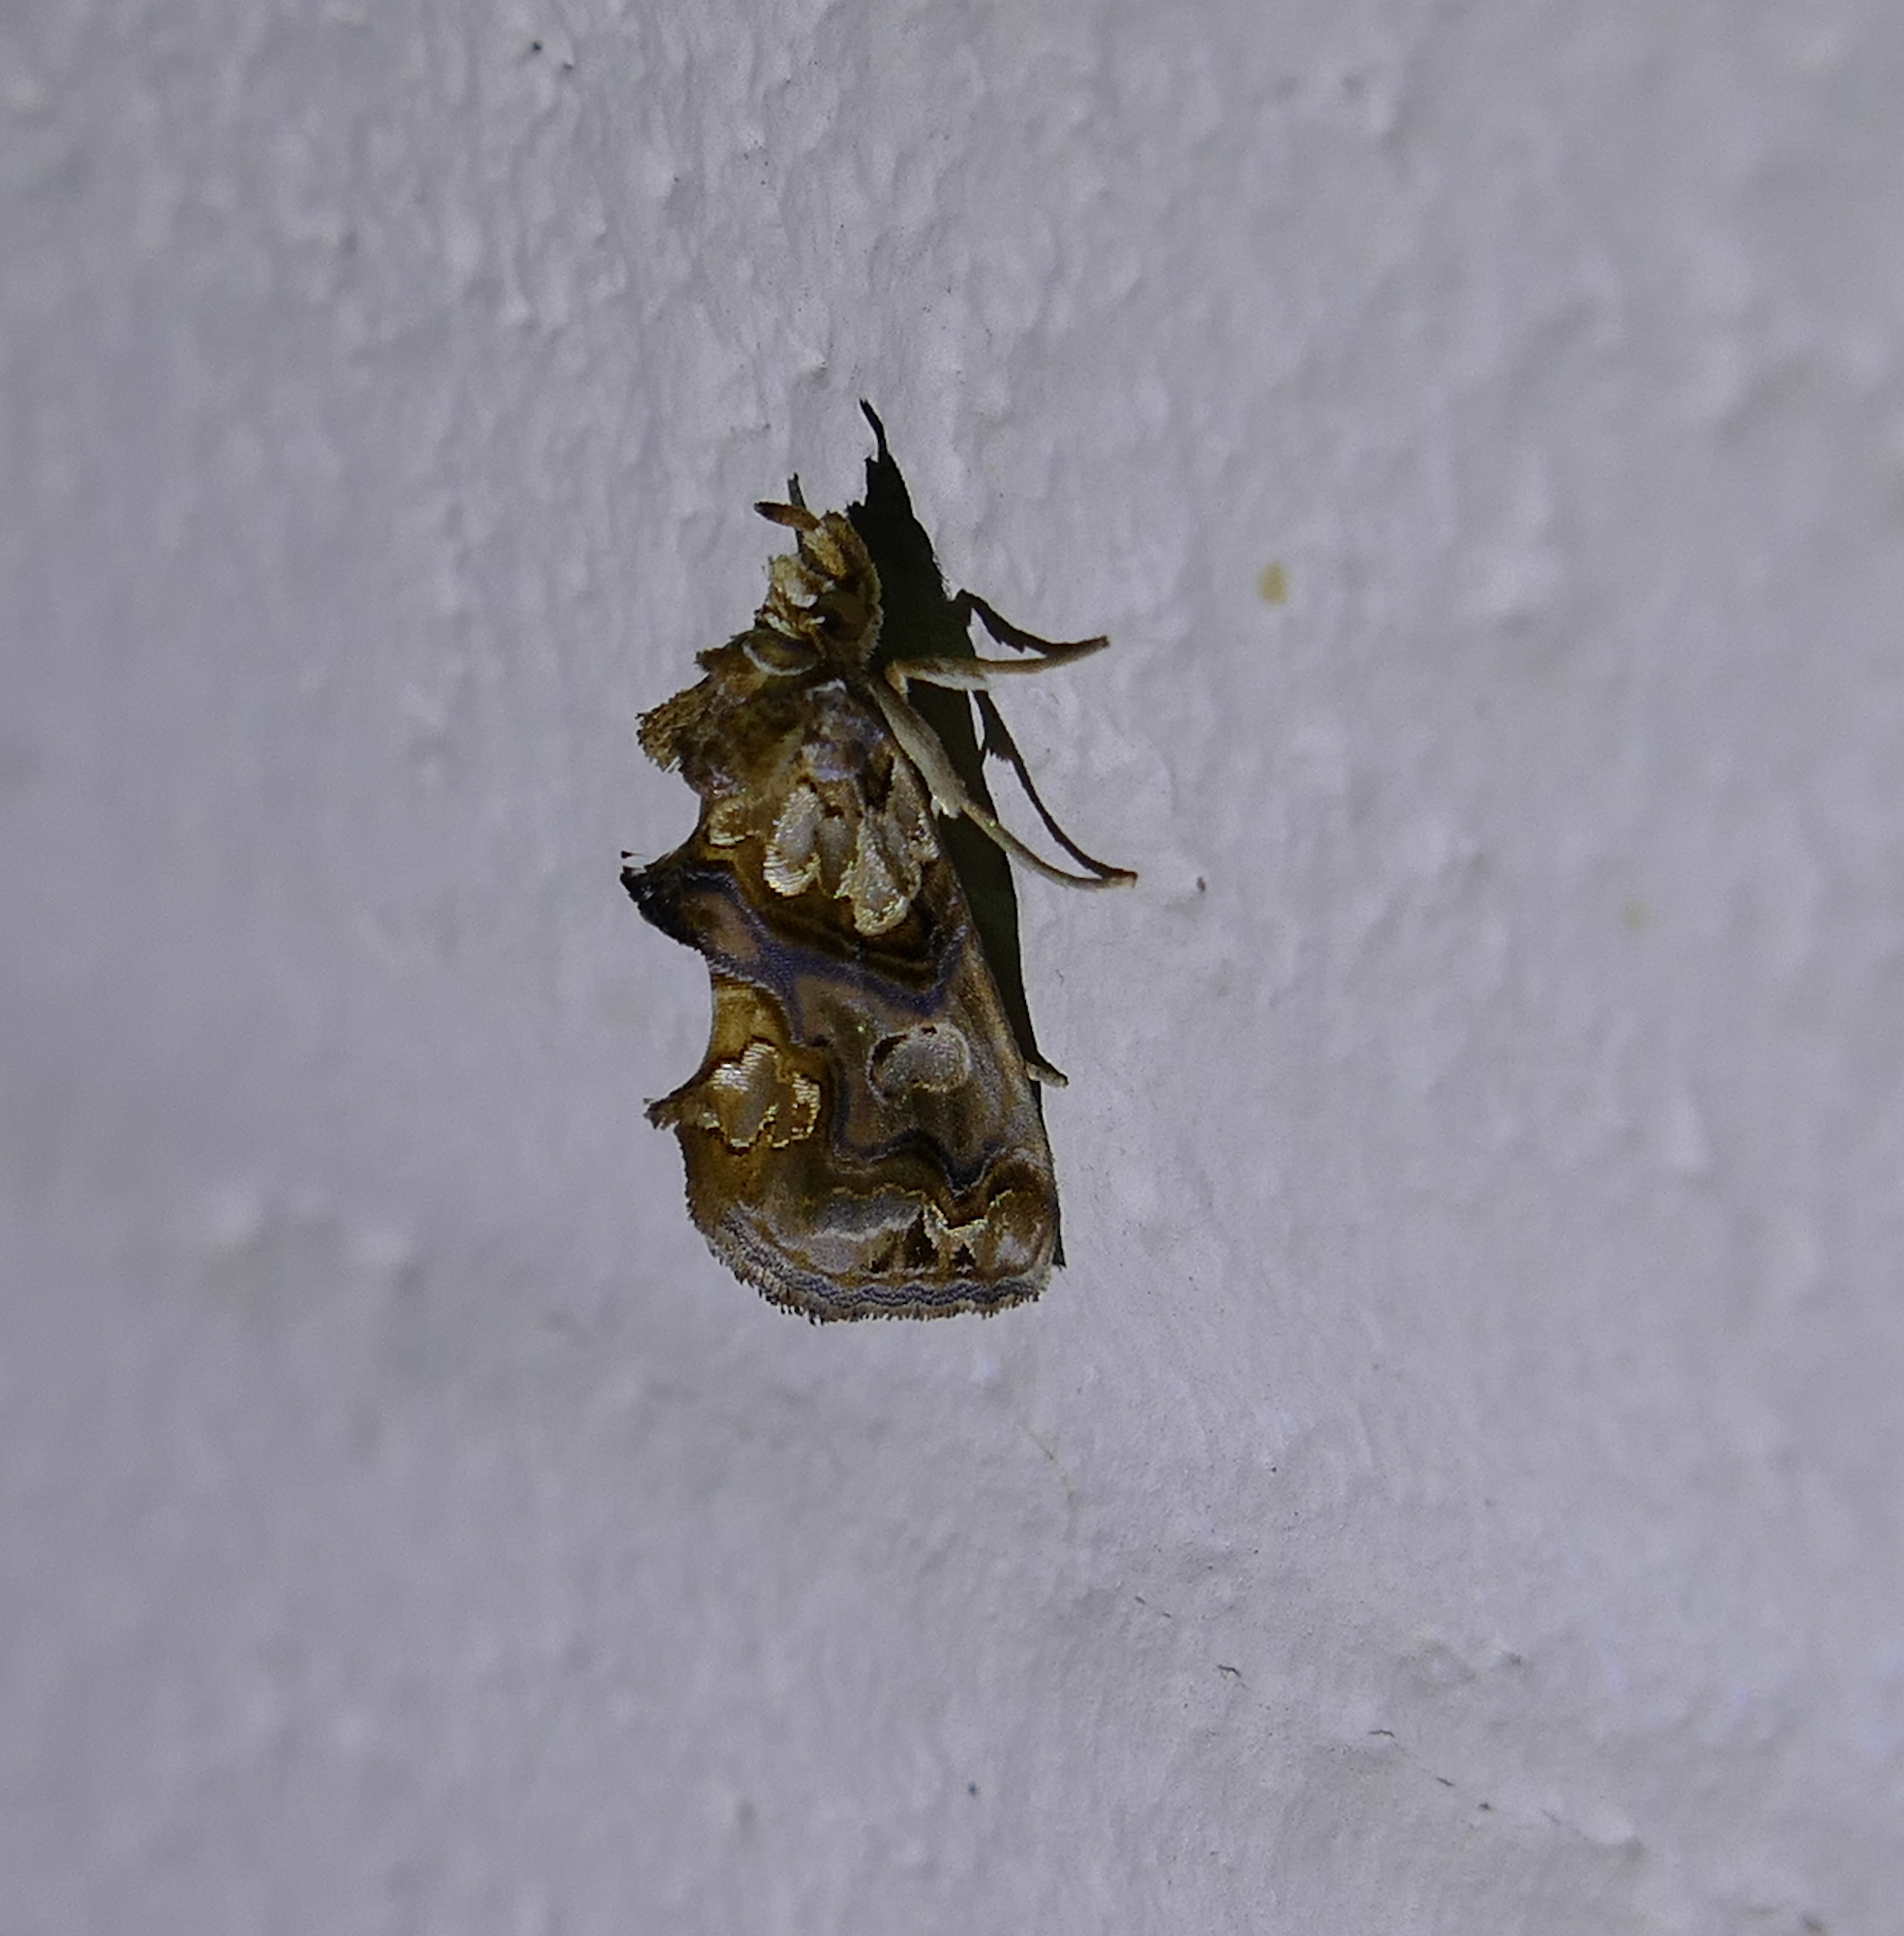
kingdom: Animalia
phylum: Arthropoda
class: Insecta
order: Lepidoptera
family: Erebidae
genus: Plusiodonta
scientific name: Plusiodonta compressipalpis
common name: Moonseed moth
